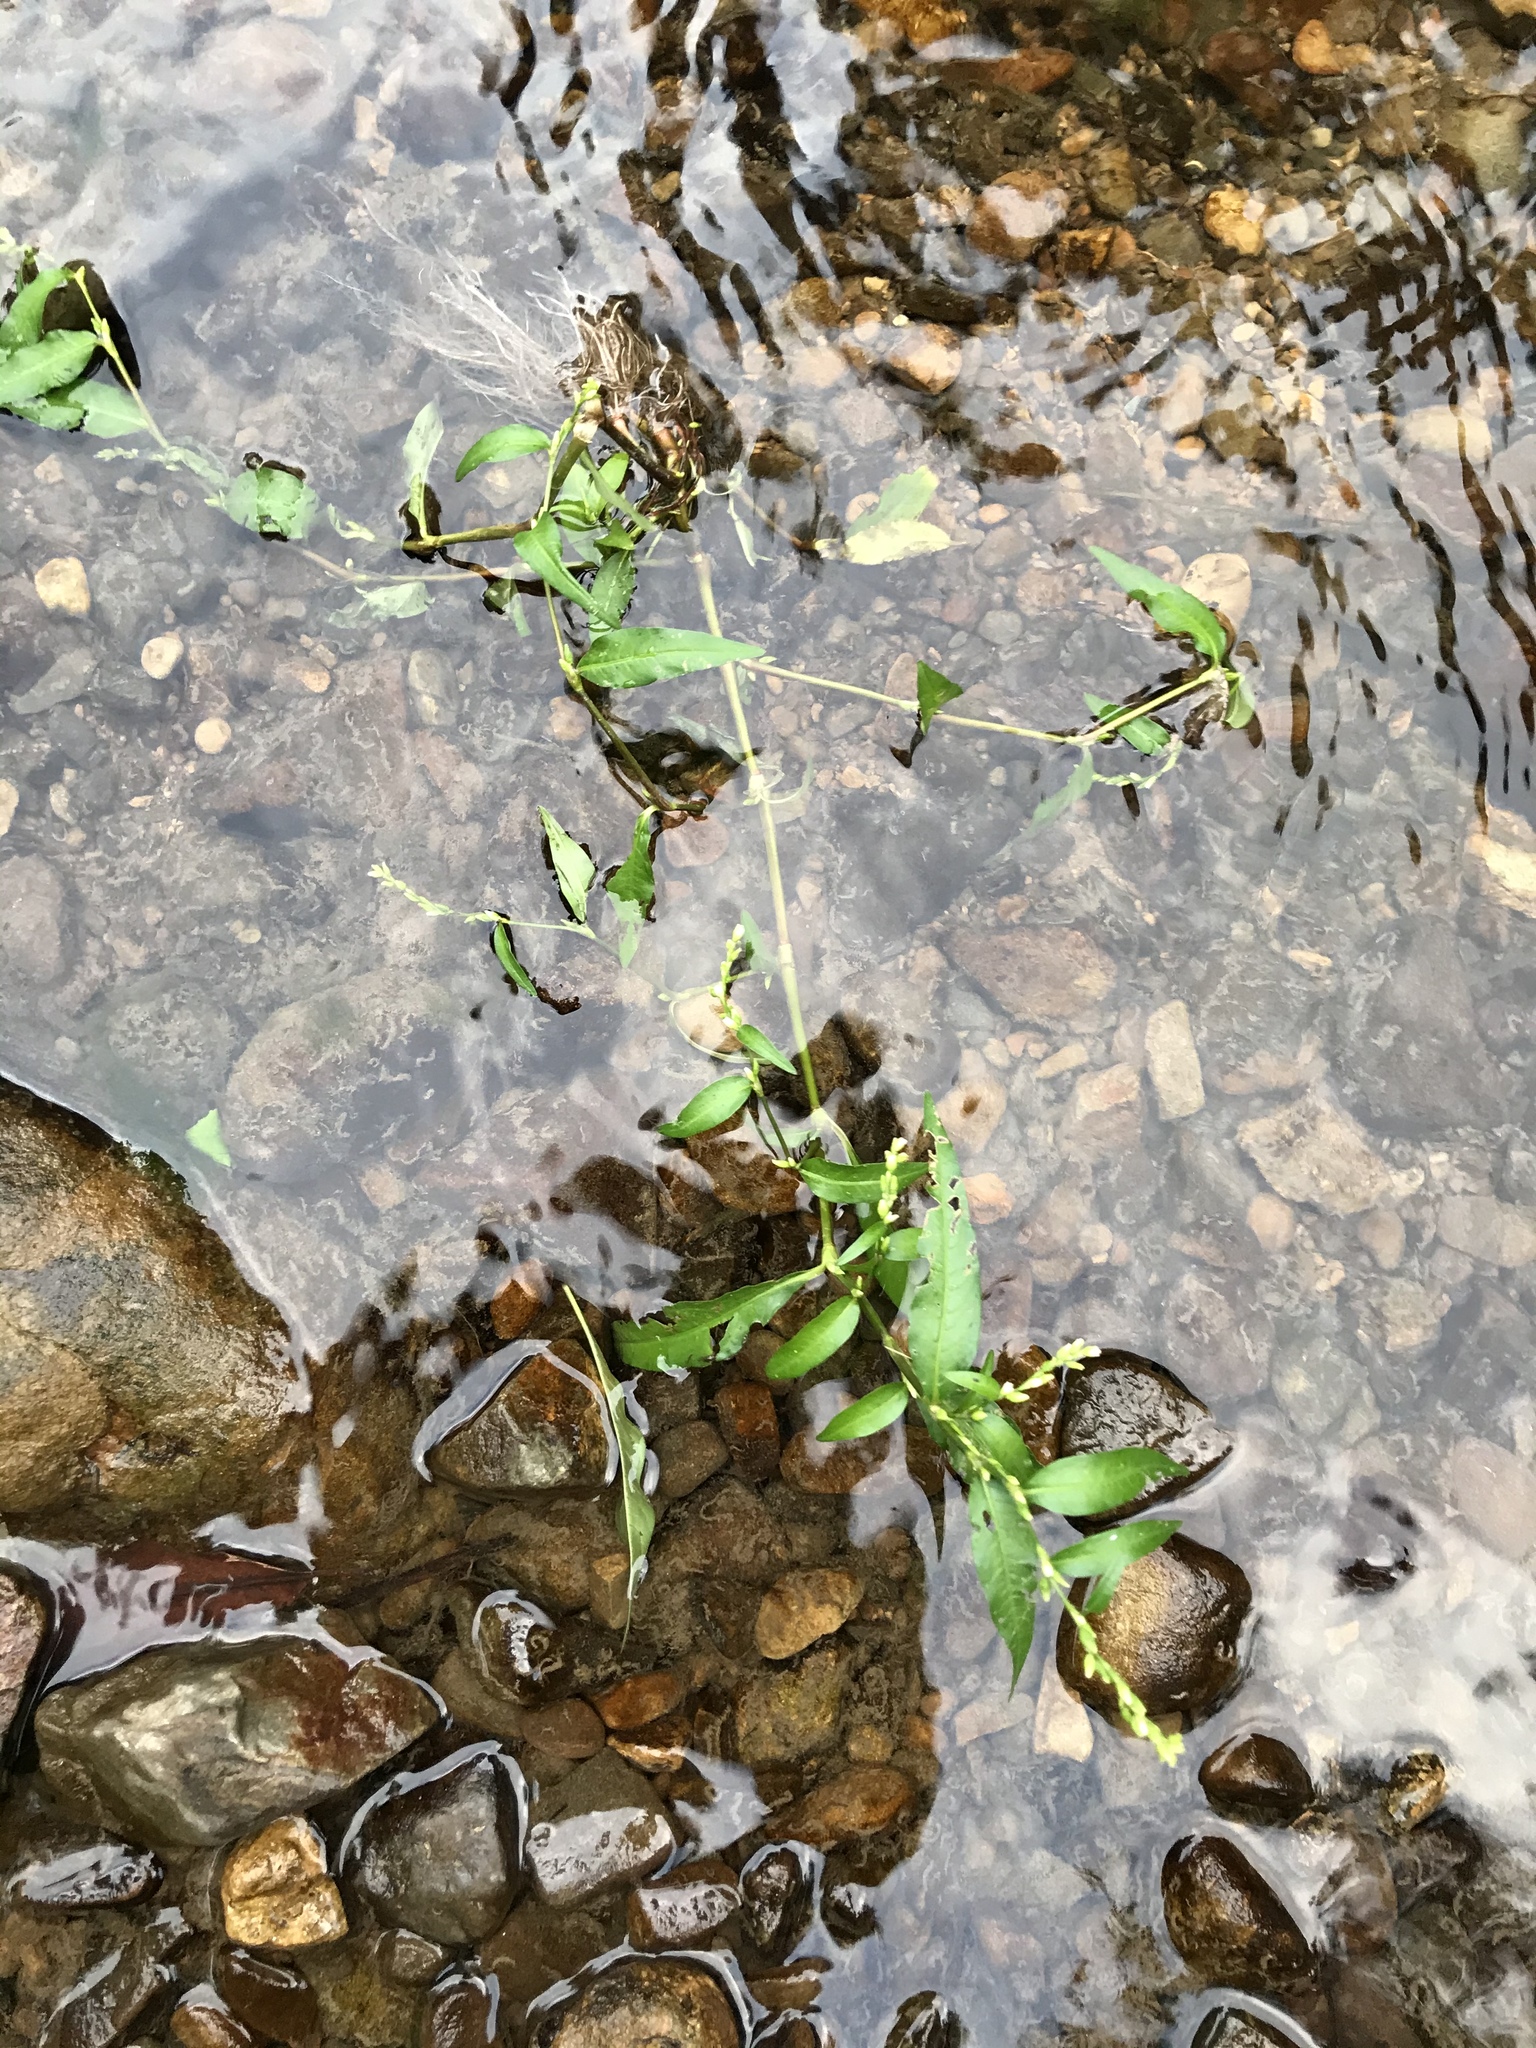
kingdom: Plantae
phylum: Tracheophyta
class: Magnoliopsida
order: Caryophyllales
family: Polygonaceae
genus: Persicaria
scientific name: Persicaria hydropiper
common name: Water-pepper
